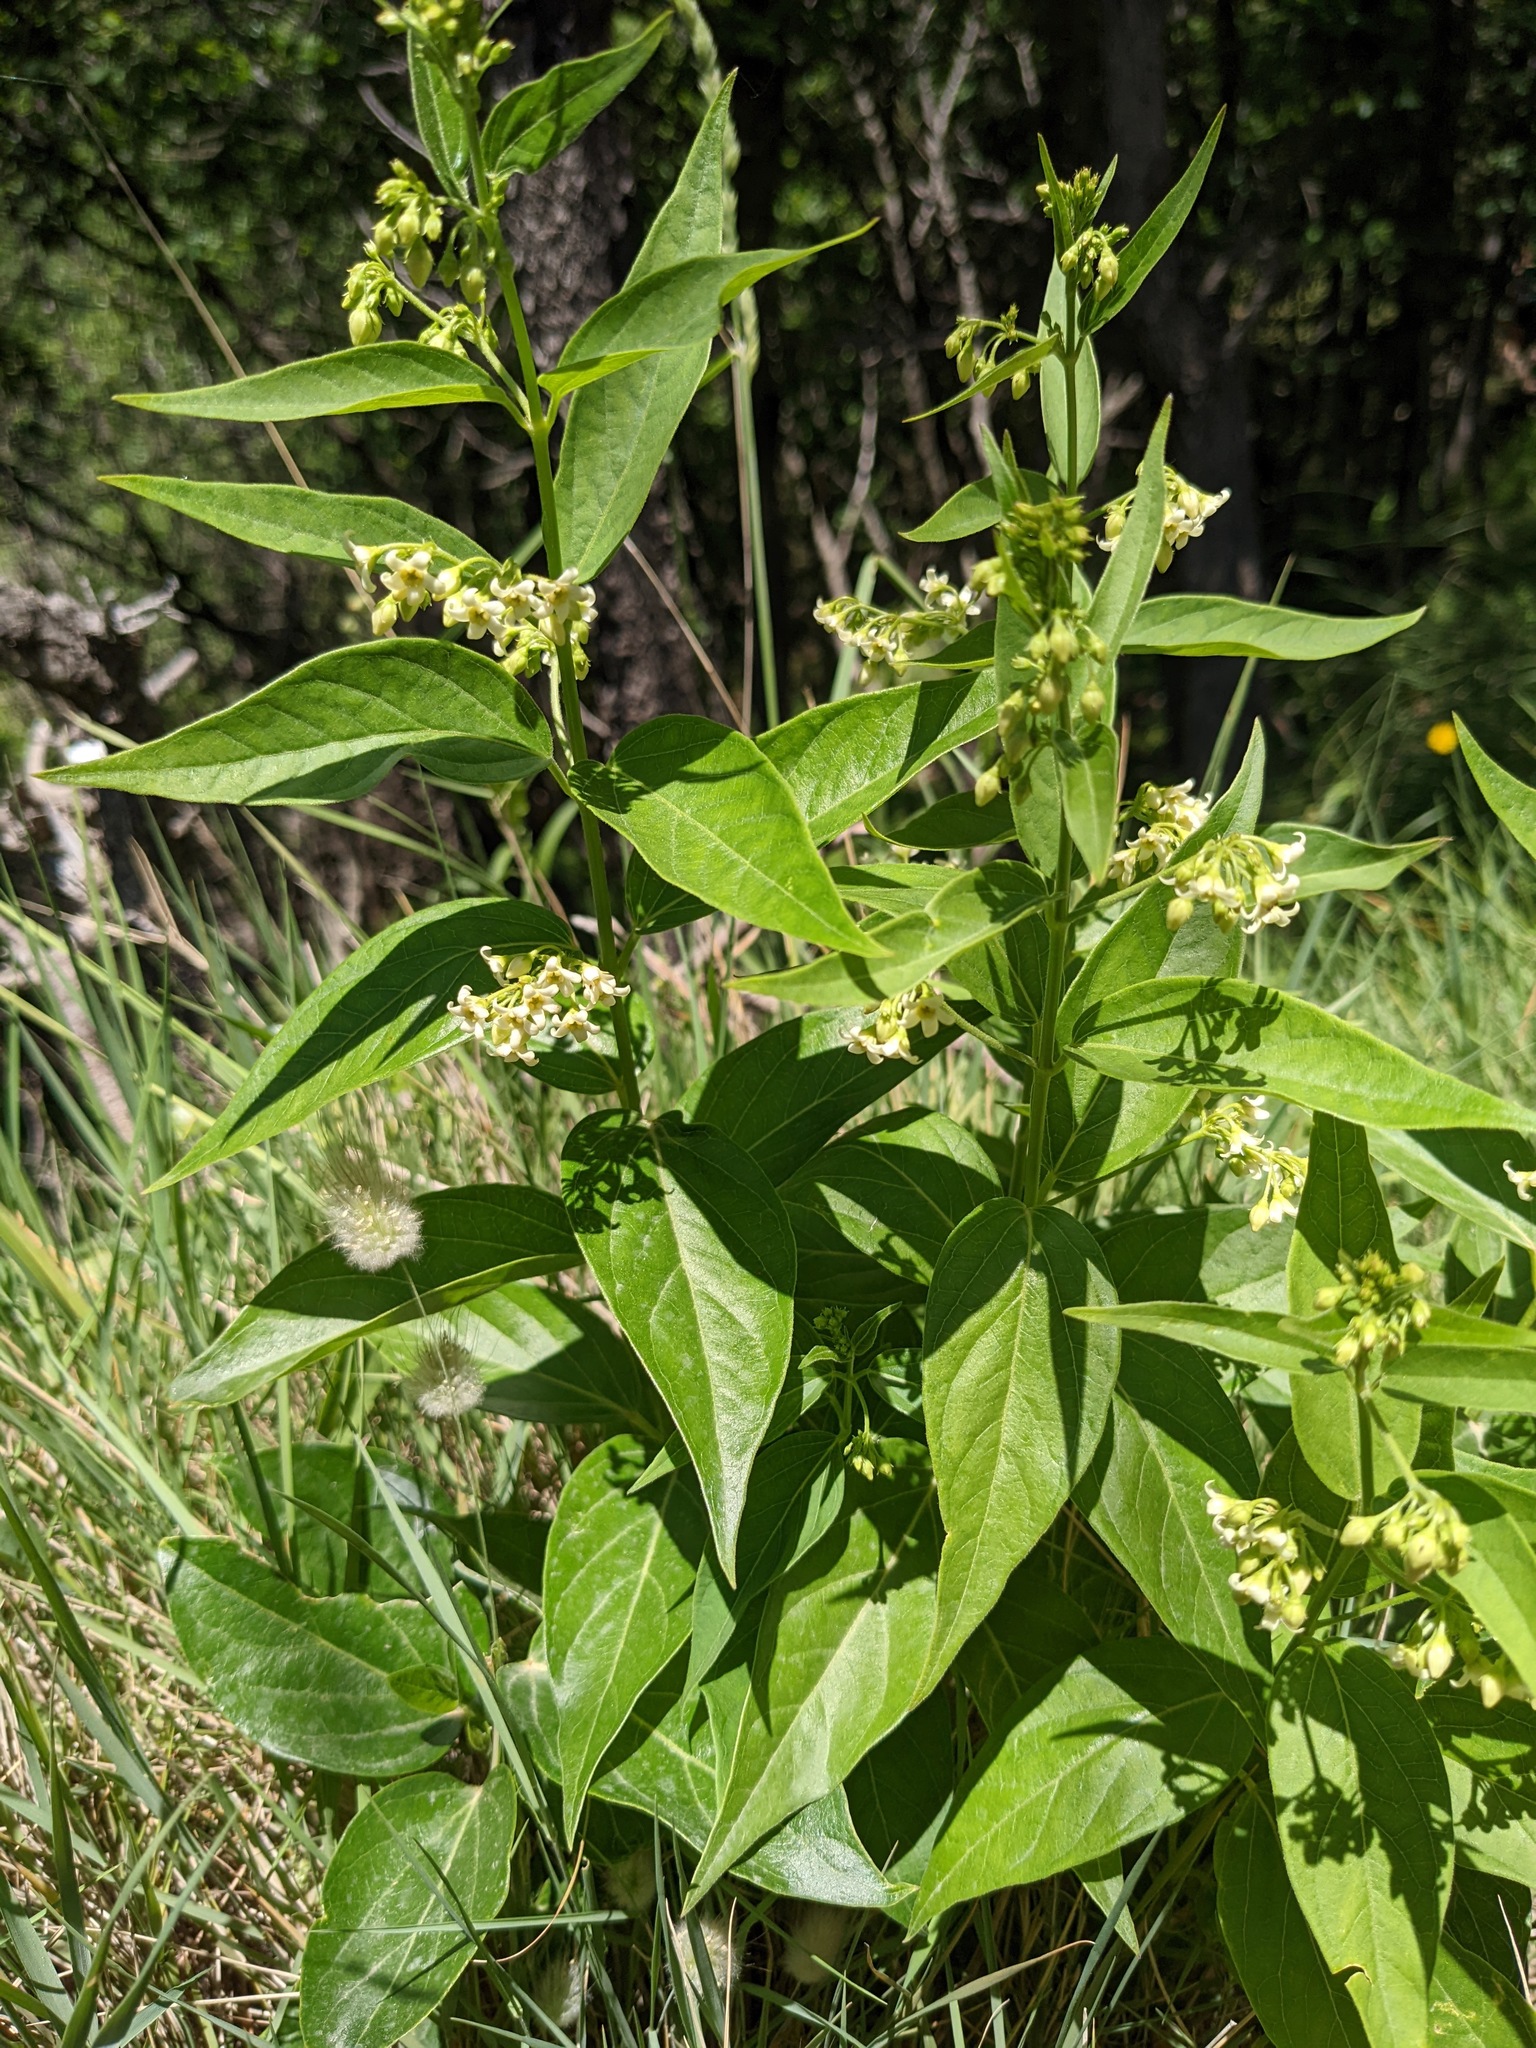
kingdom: Plantae
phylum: Tracheophyta
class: Magnoliopsida
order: Gentianales
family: Apocynaceae
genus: Vincetoxicum
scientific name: Vincetoxicum hirundinaria
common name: White swallowwort
